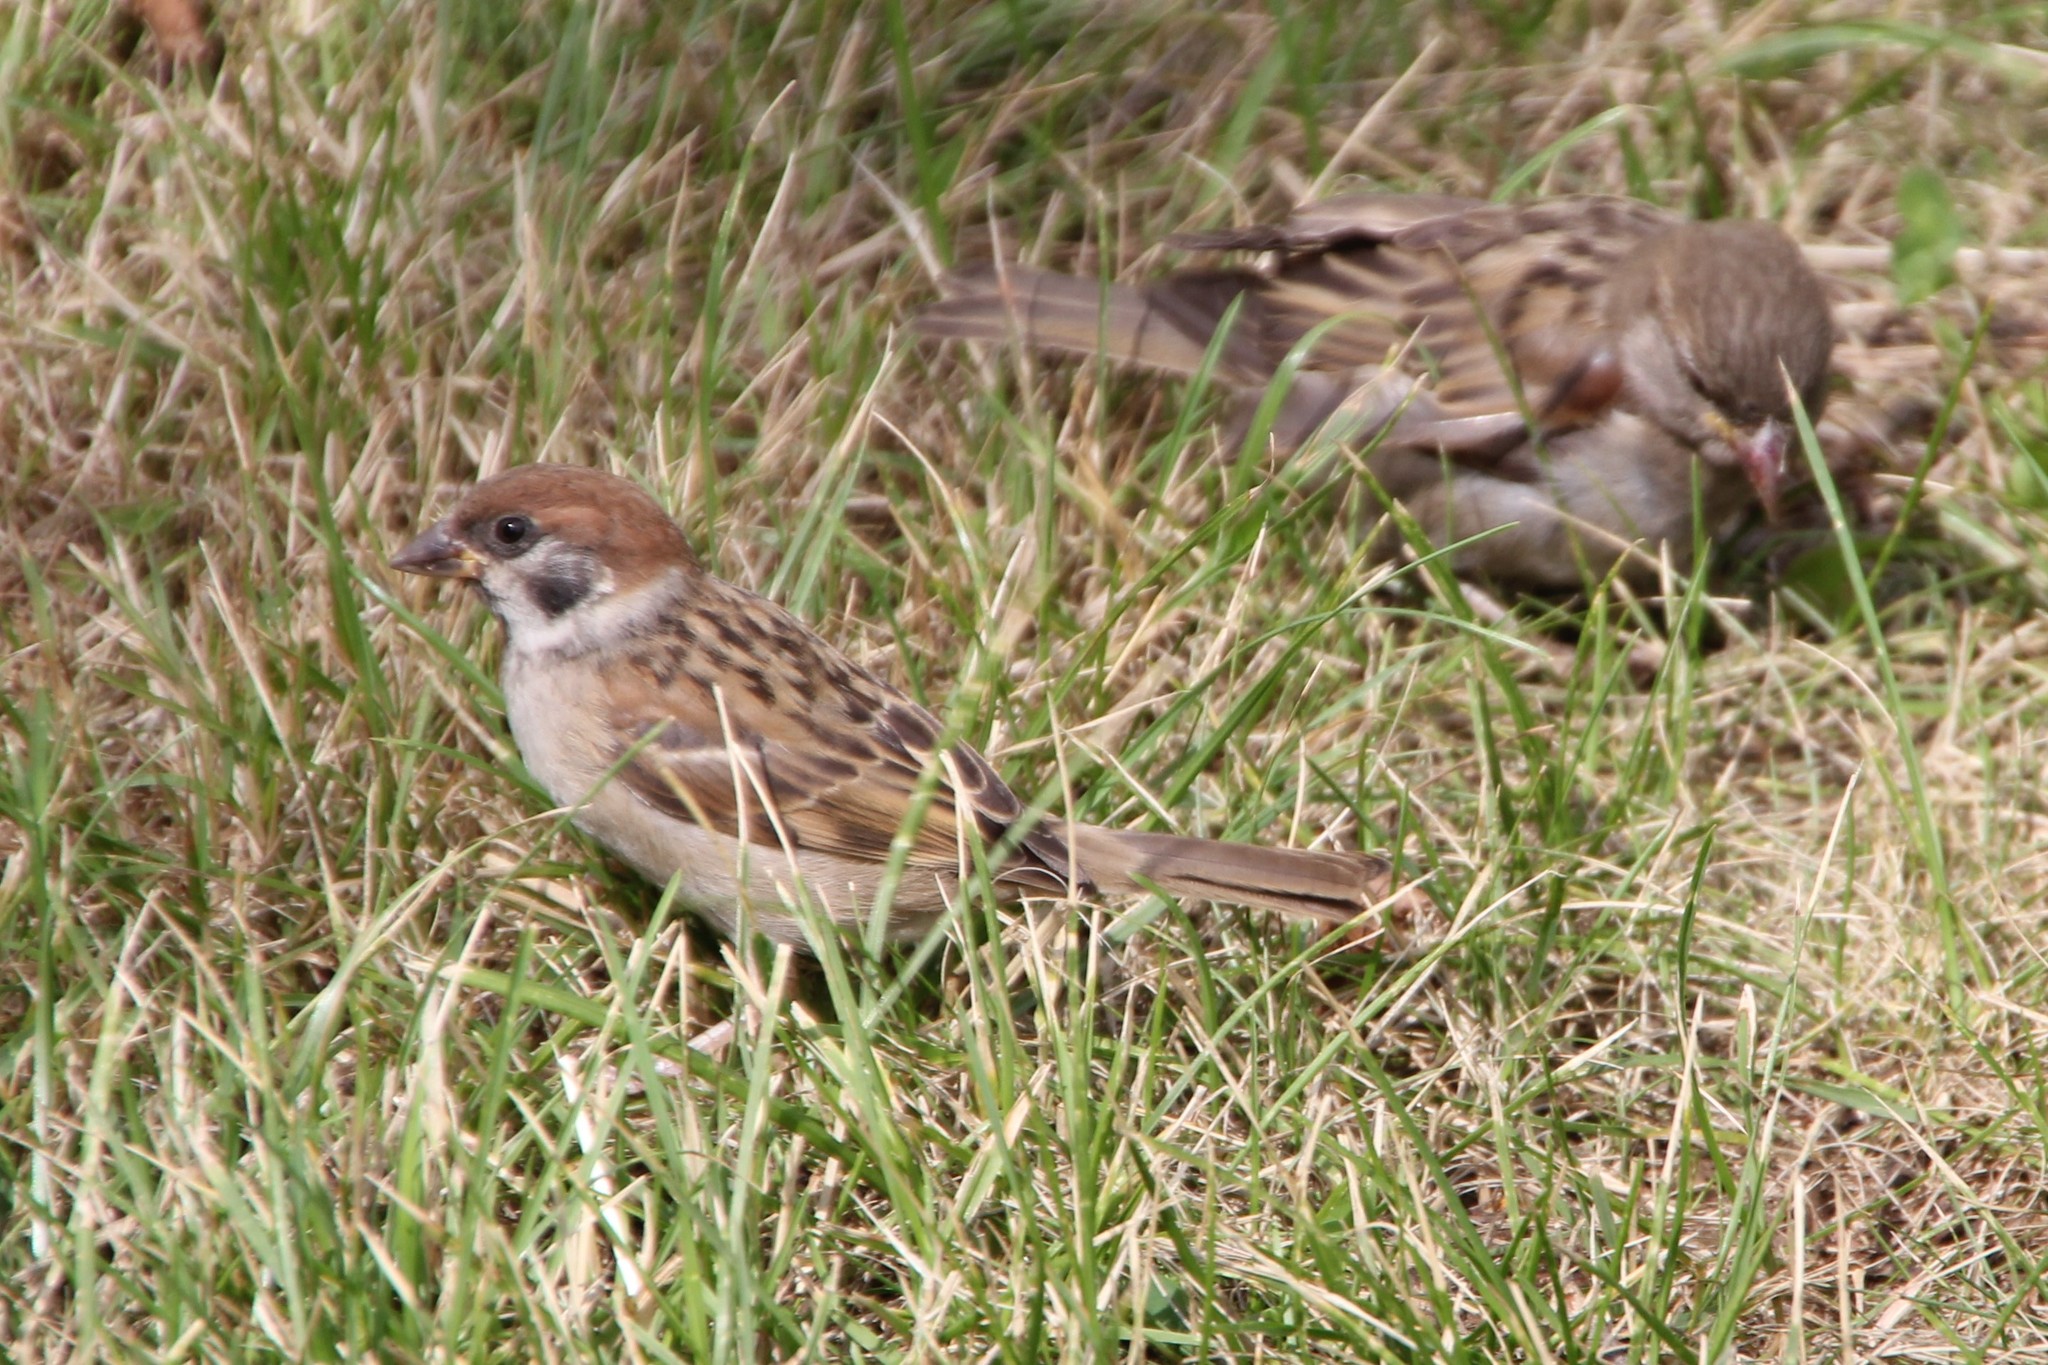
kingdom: Animalia
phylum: Chordata
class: Aves
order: Passeriformes
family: Passeridae
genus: Passer
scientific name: Passer montanus
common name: Eurasian tree sparrow
